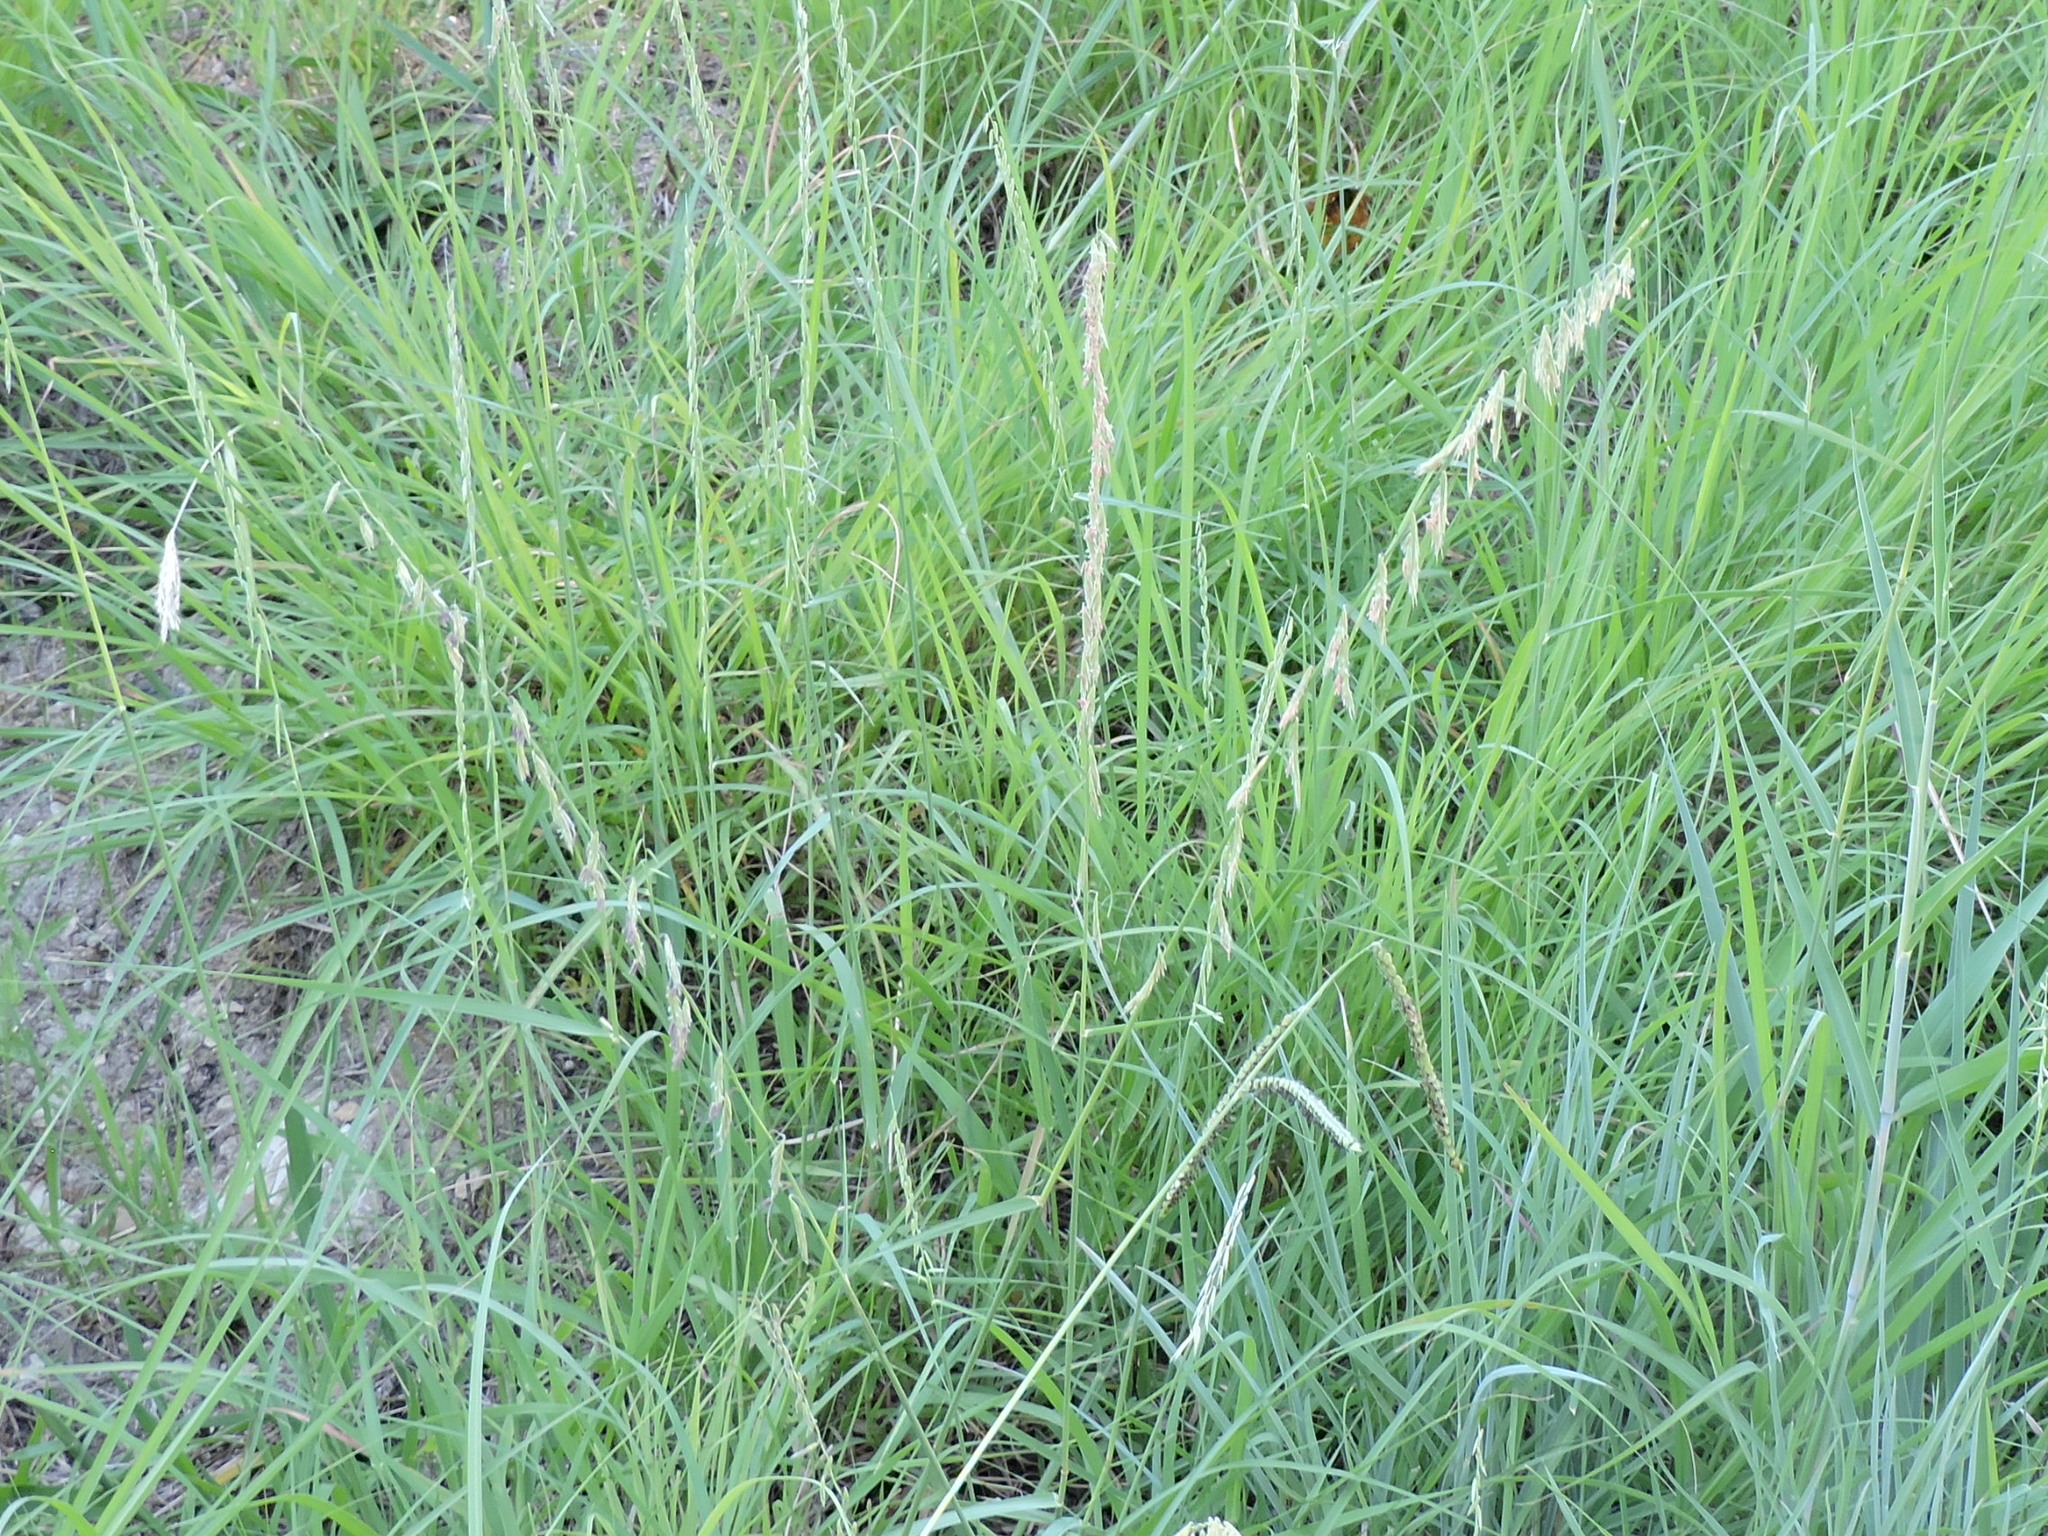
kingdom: Plantae
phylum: Tracheophyta
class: Liliopsida
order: Poales
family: Poaceae
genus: Bouteloua
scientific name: Bouteloua curtipendula
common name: Side-oats grama
